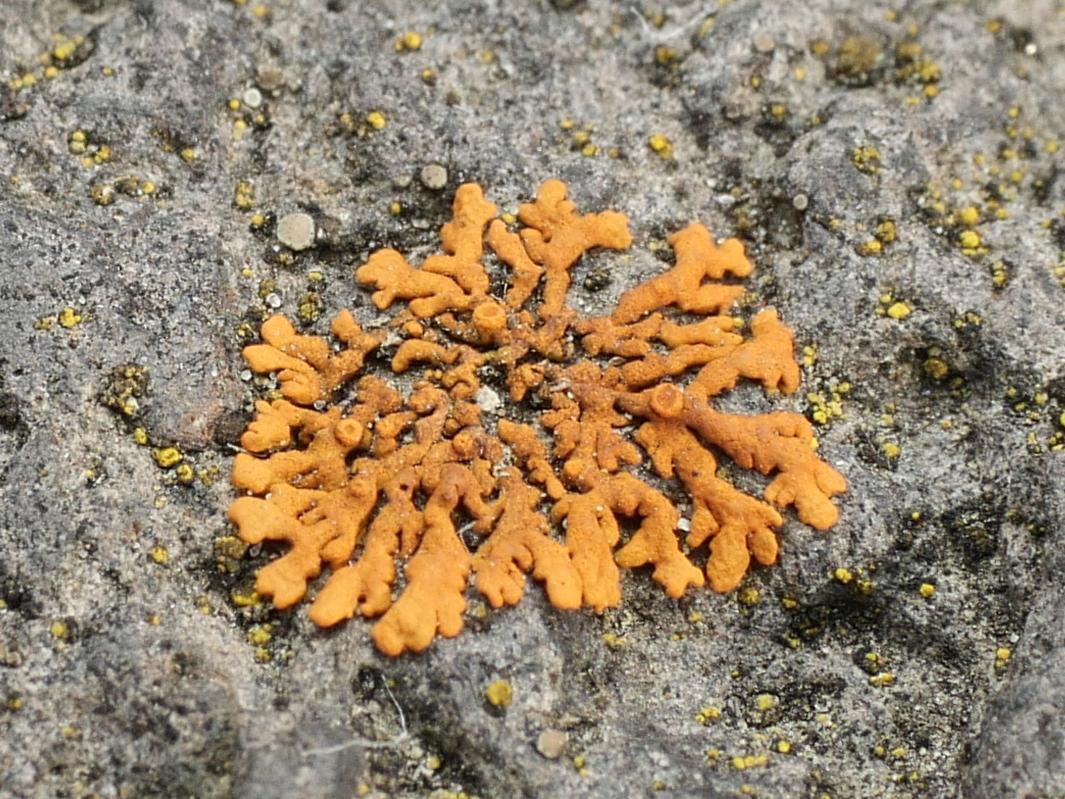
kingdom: Fungi
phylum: Ascomycota
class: Lecanoromycetes
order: Teloschistales
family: Teloschistaceae
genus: Xanthoria
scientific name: Xanthoria elegans
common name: Elegant sunburst lichen
